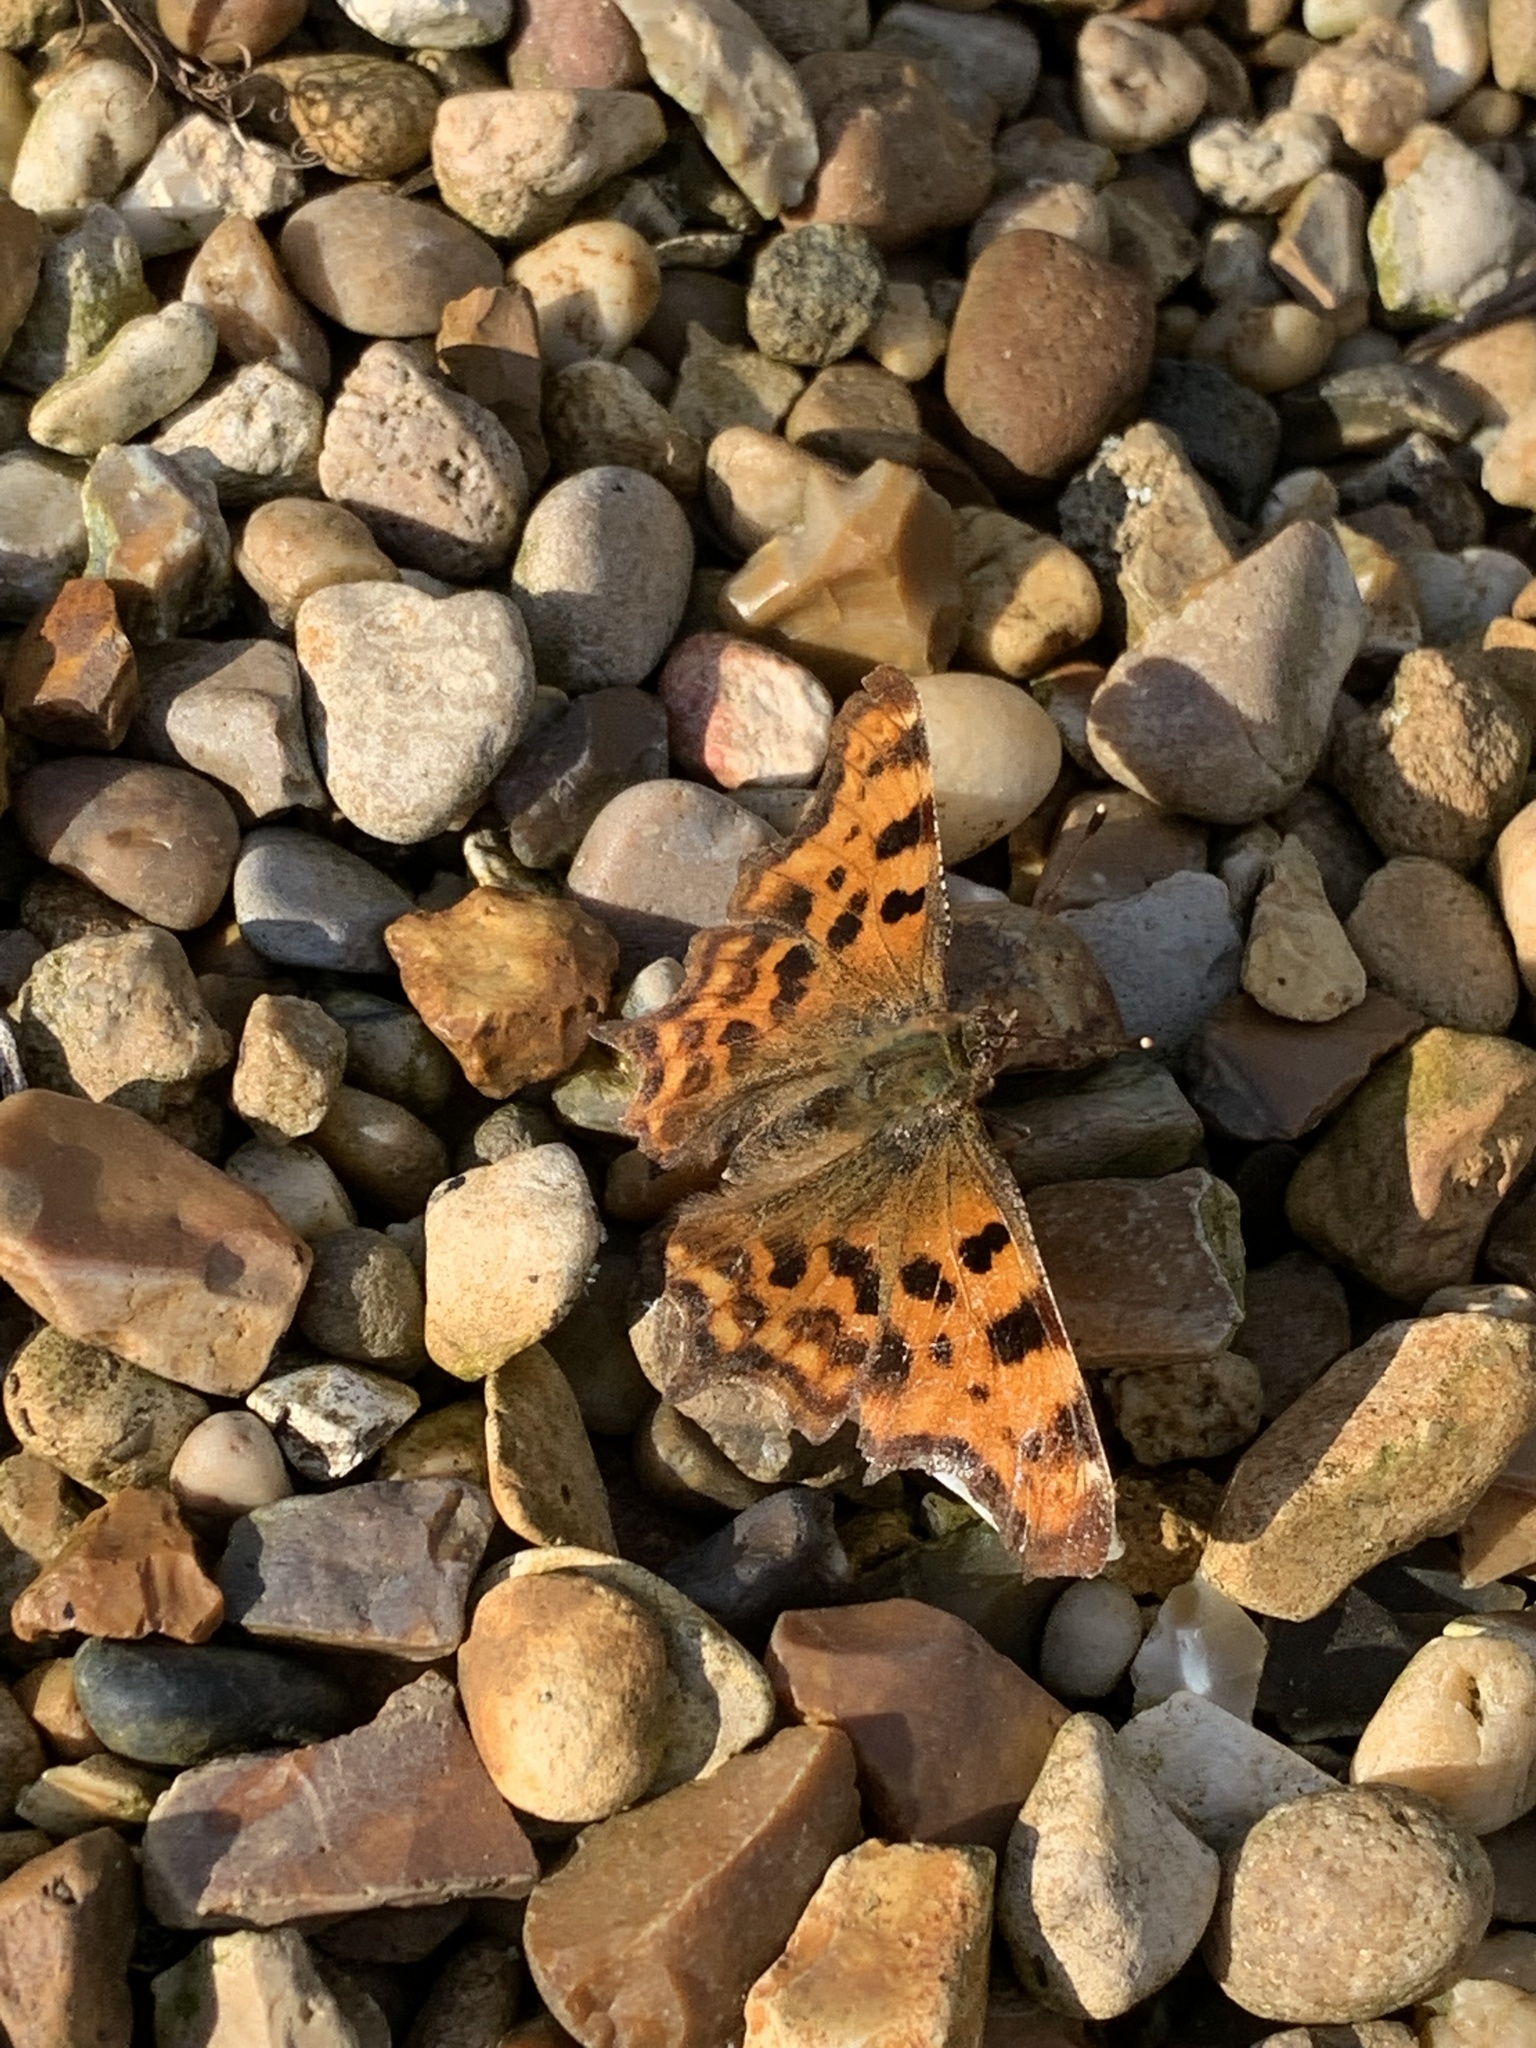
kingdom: Animalia
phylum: Arthropoda
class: Insecta
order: Lepidoptera
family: Nymphalidae
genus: Polygonia
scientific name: Polygonia c-album
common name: Comma
